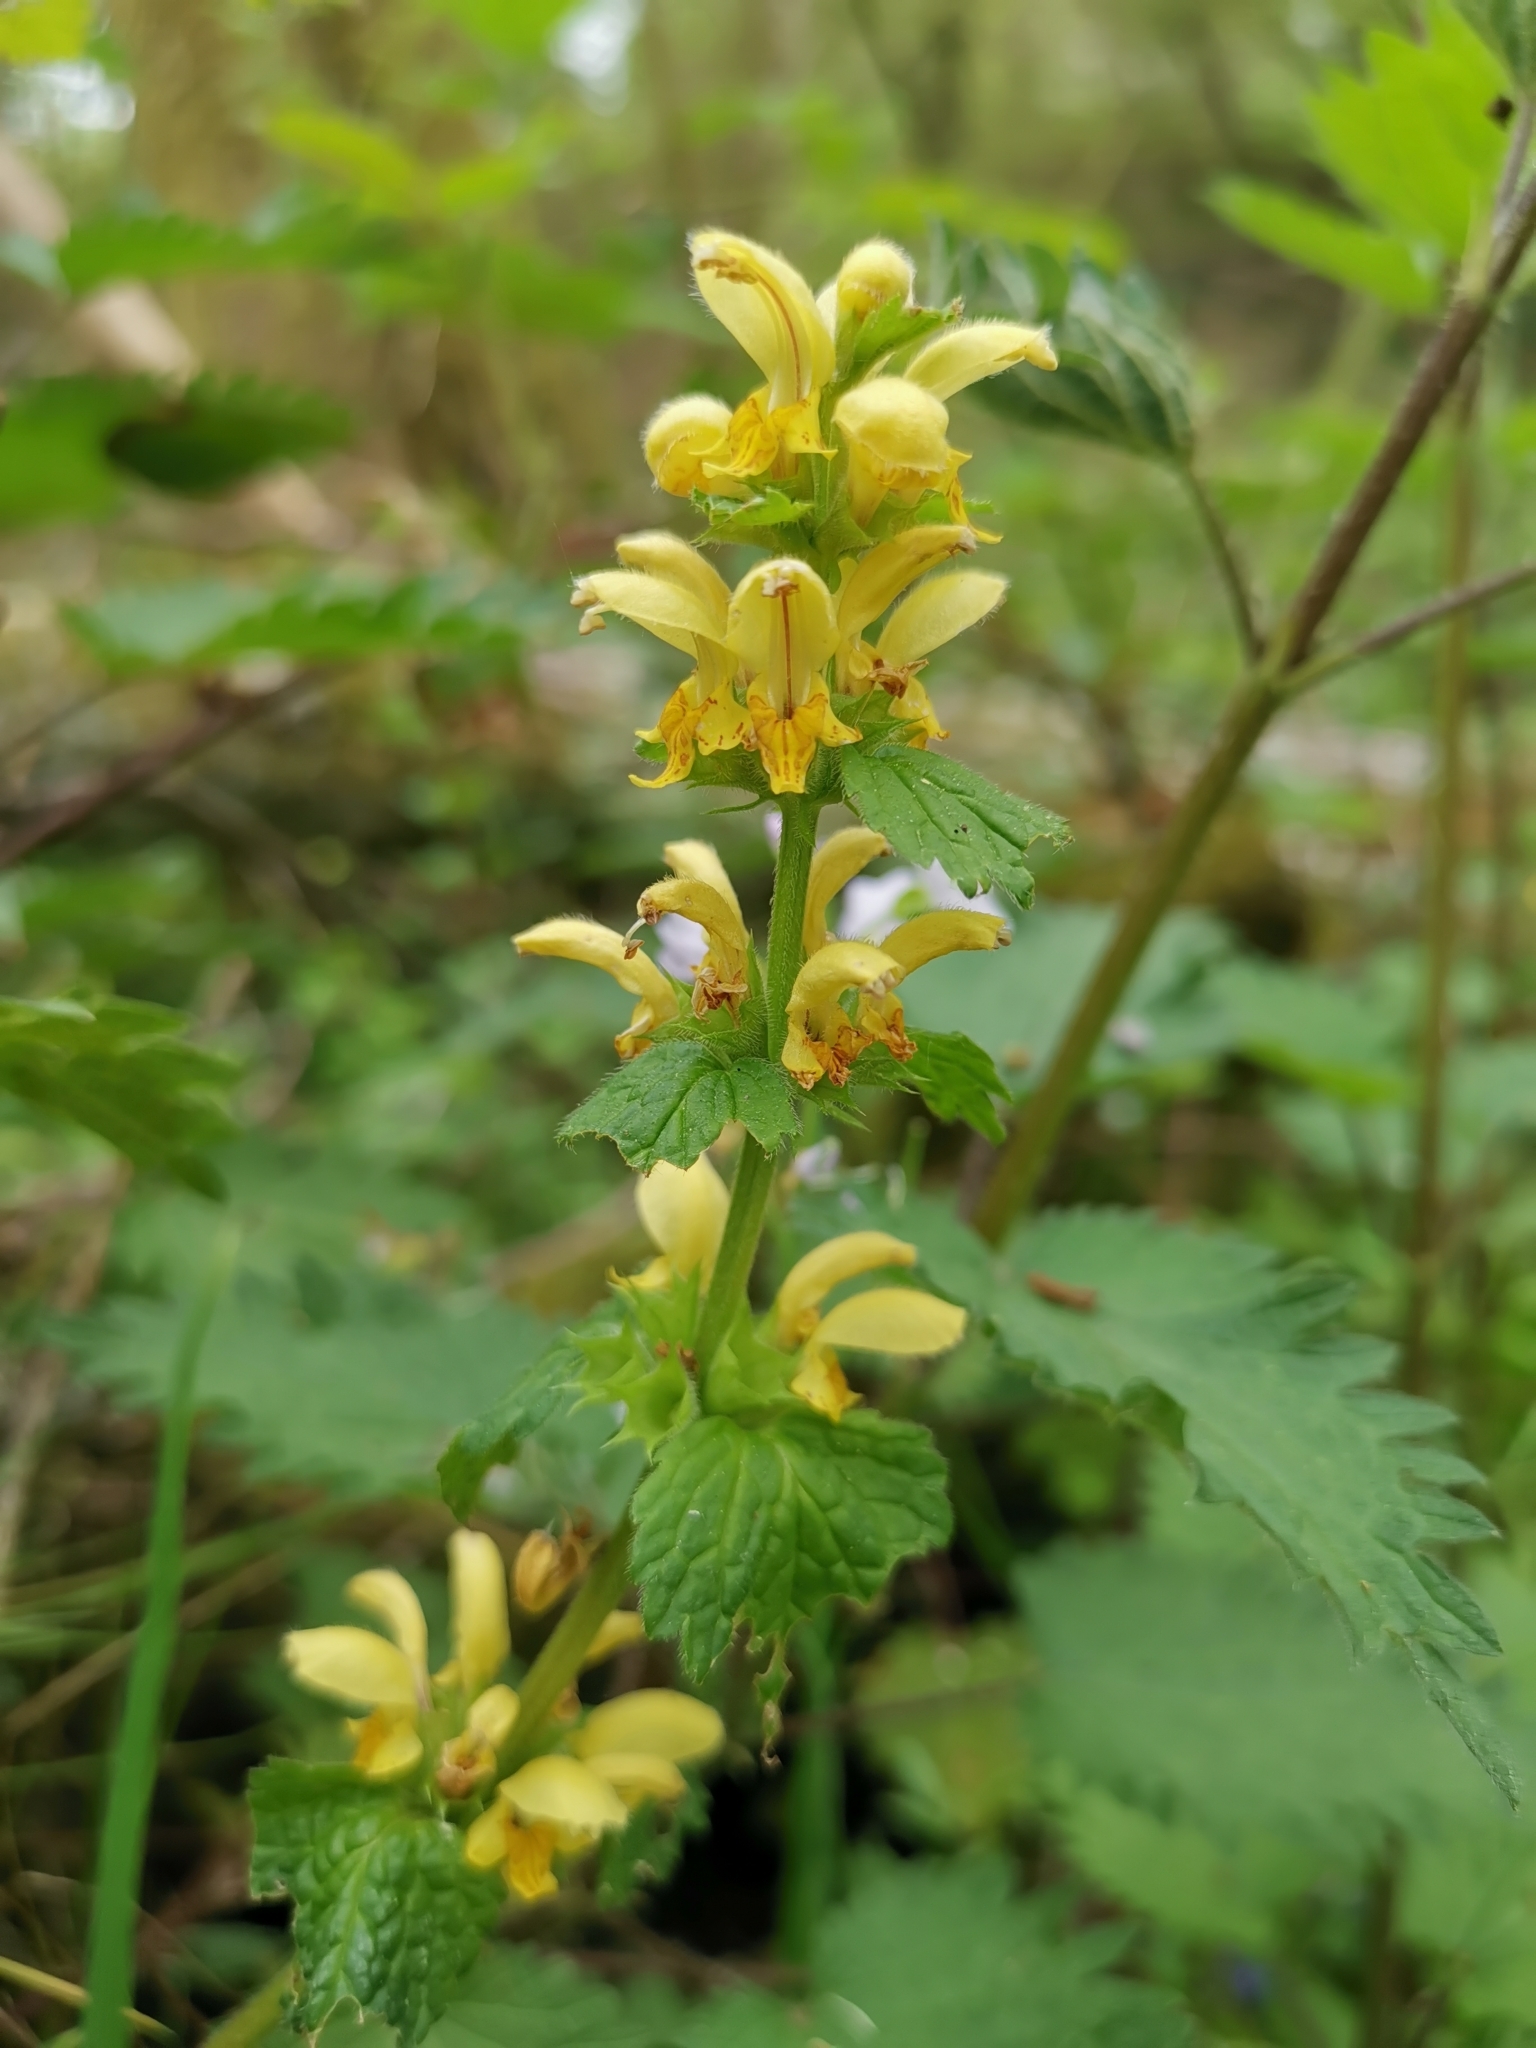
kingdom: Plantae
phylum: Tracheophyta
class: Magnoliopsida
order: Lamiales
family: Lamiaceae
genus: Lamium
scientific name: Lamium galeobdolon
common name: Yellow archangel
